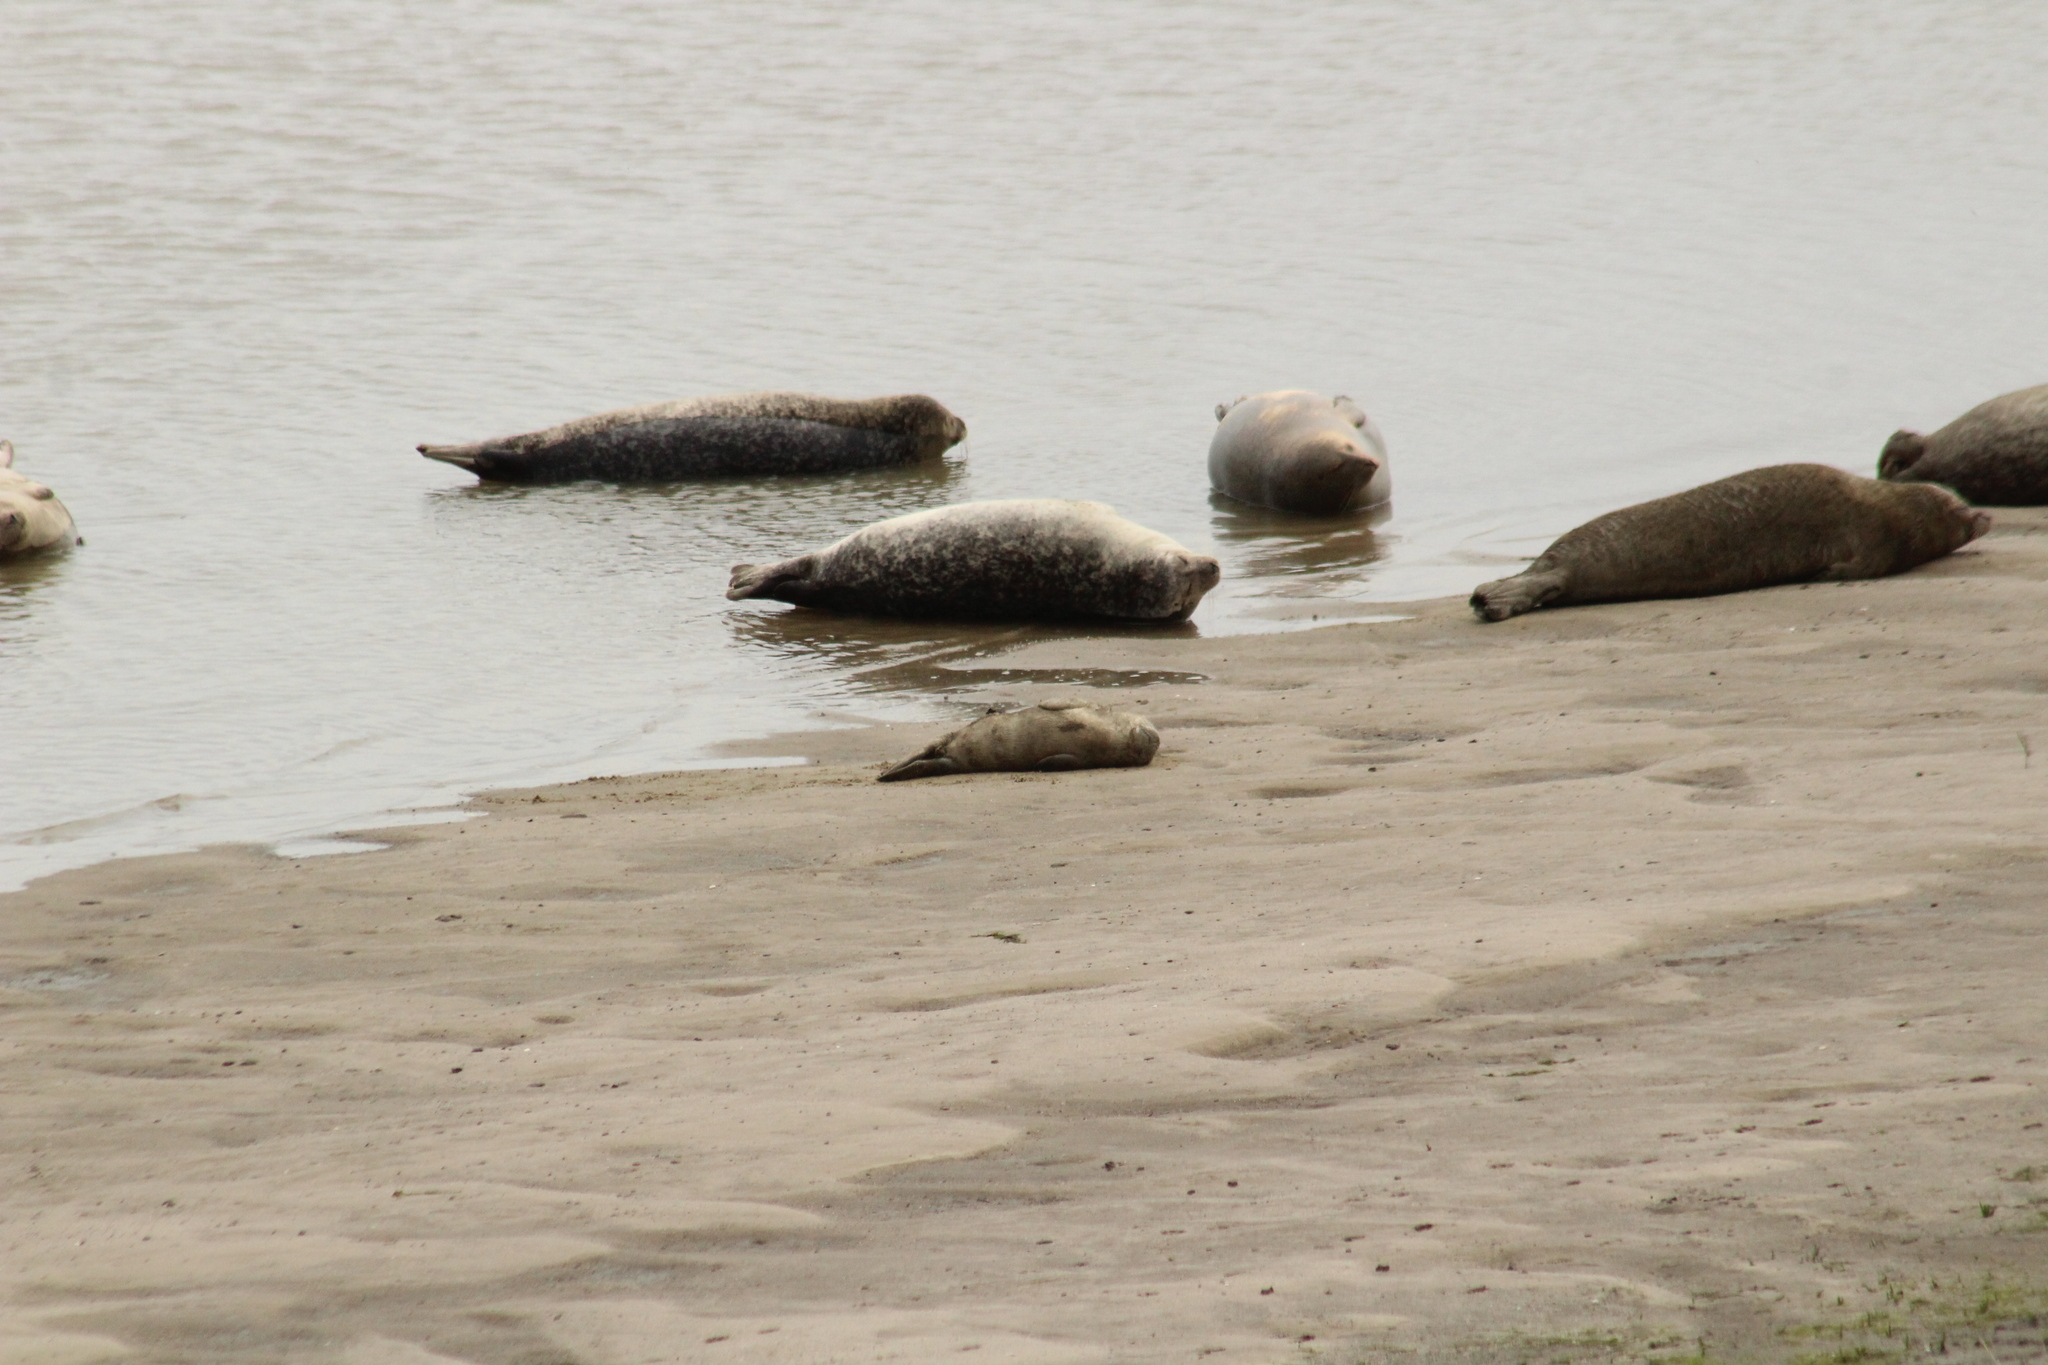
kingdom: Animalia
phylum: Chordata
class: Mammalia
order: Carnivora
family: Phocidae
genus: Phoca
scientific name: Phoca vitulina
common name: Harbor seal
